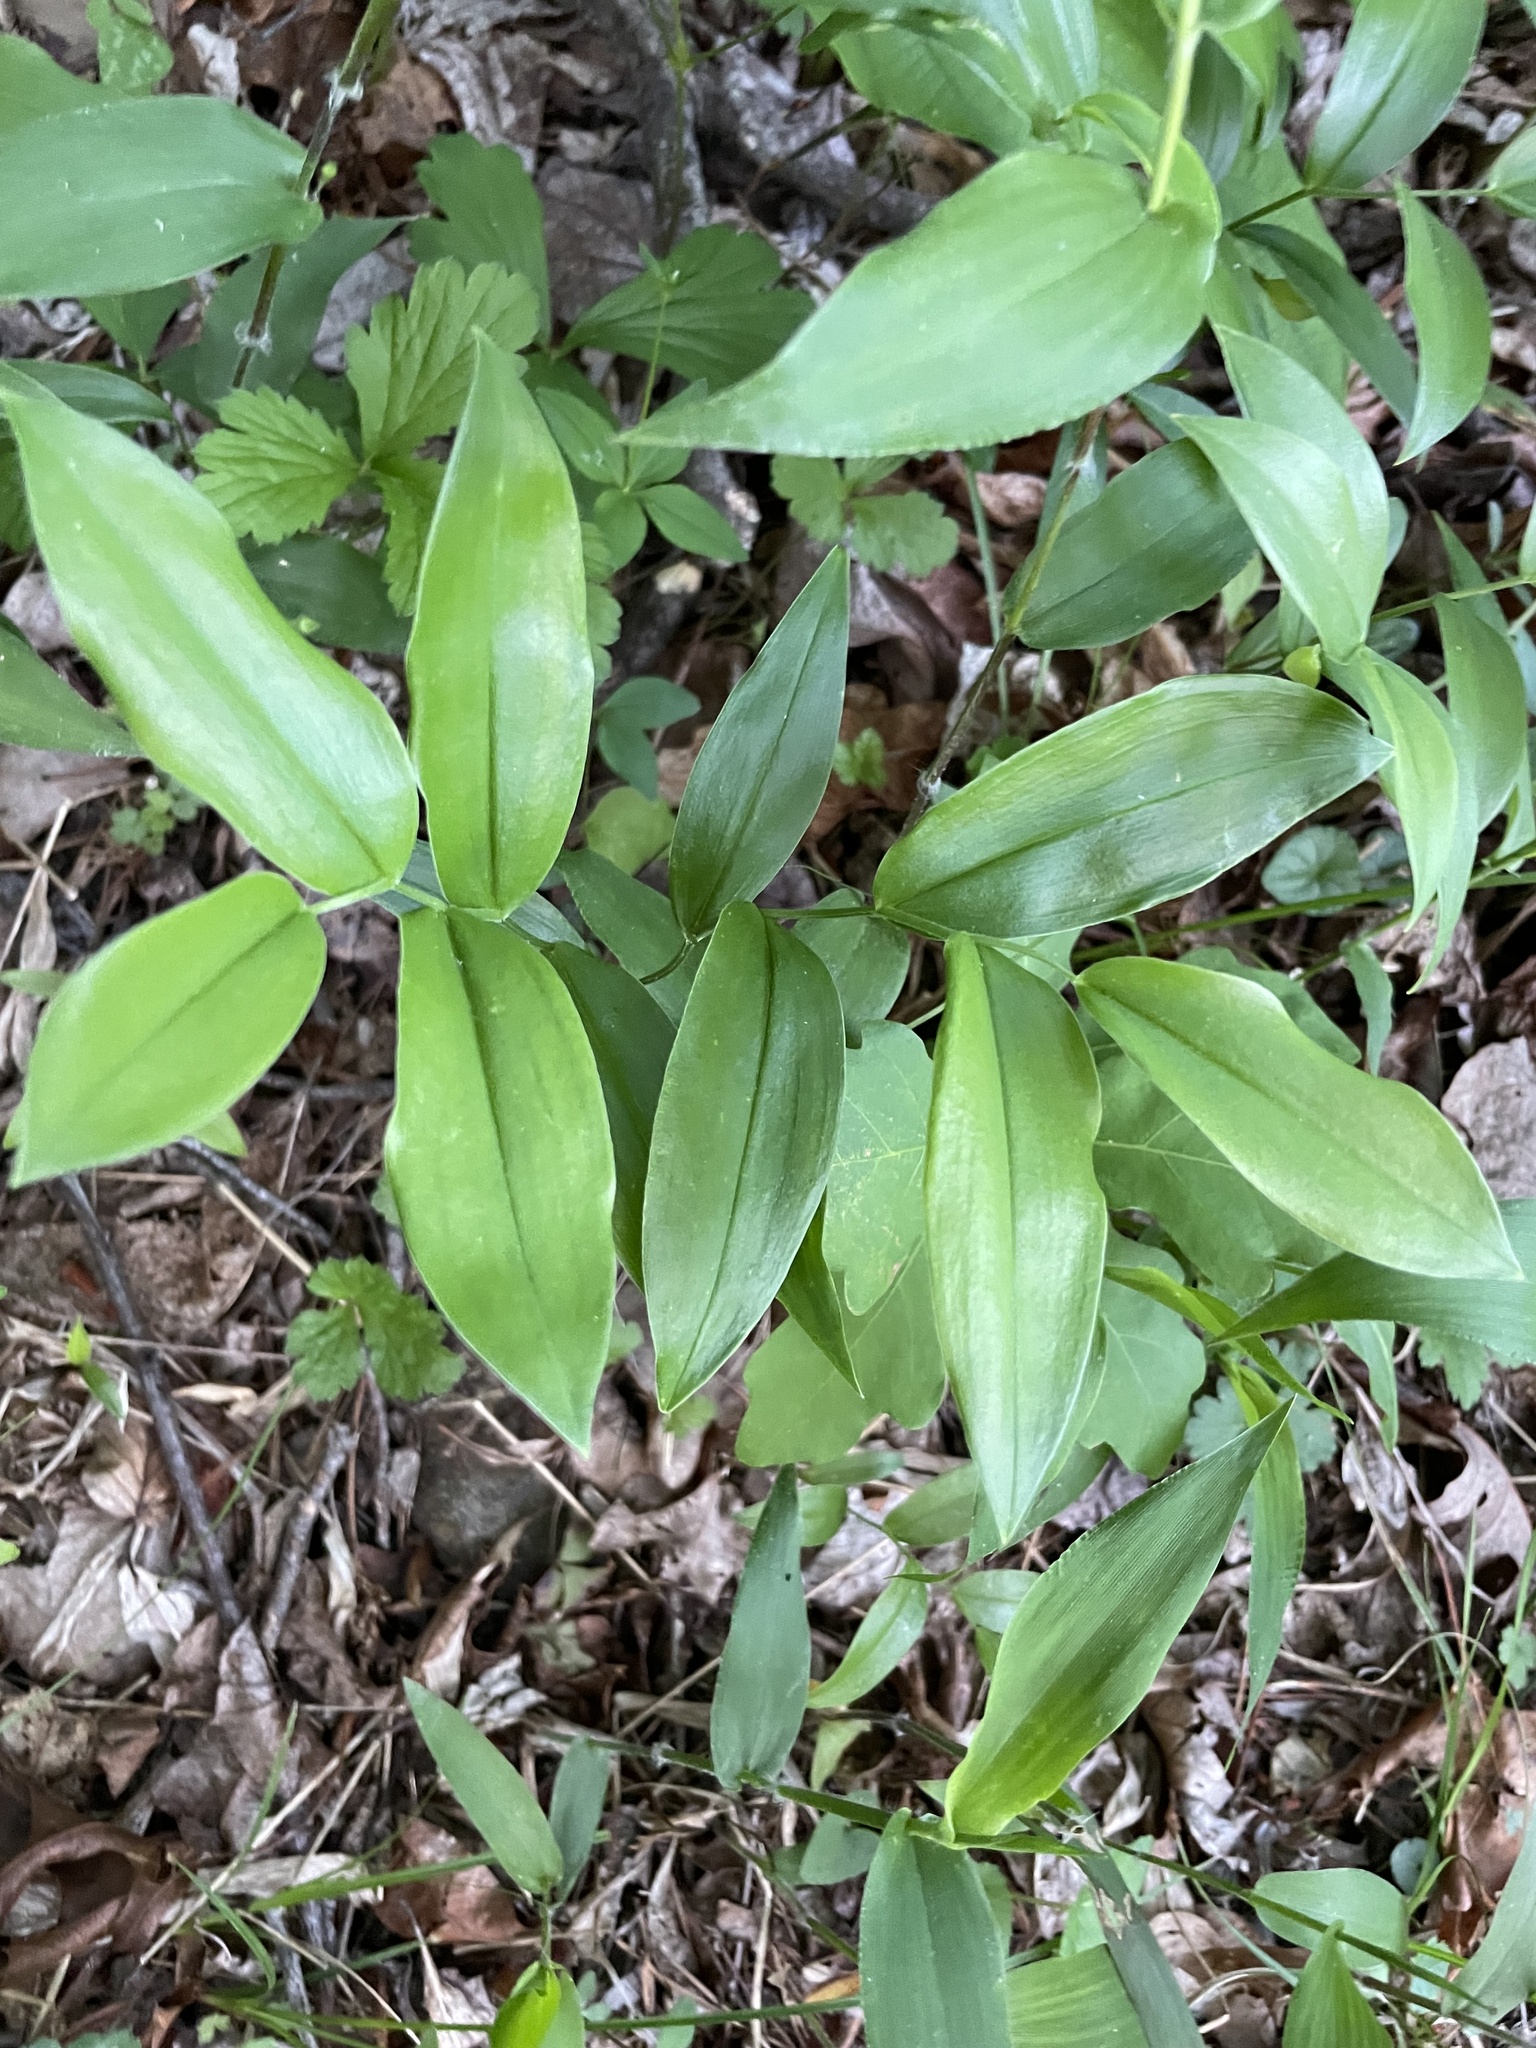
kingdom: Plantae
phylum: Tracheophyta
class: Liliopsida
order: Liliales
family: Colchicaceae
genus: Uvularia
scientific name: Uvularia puberula
